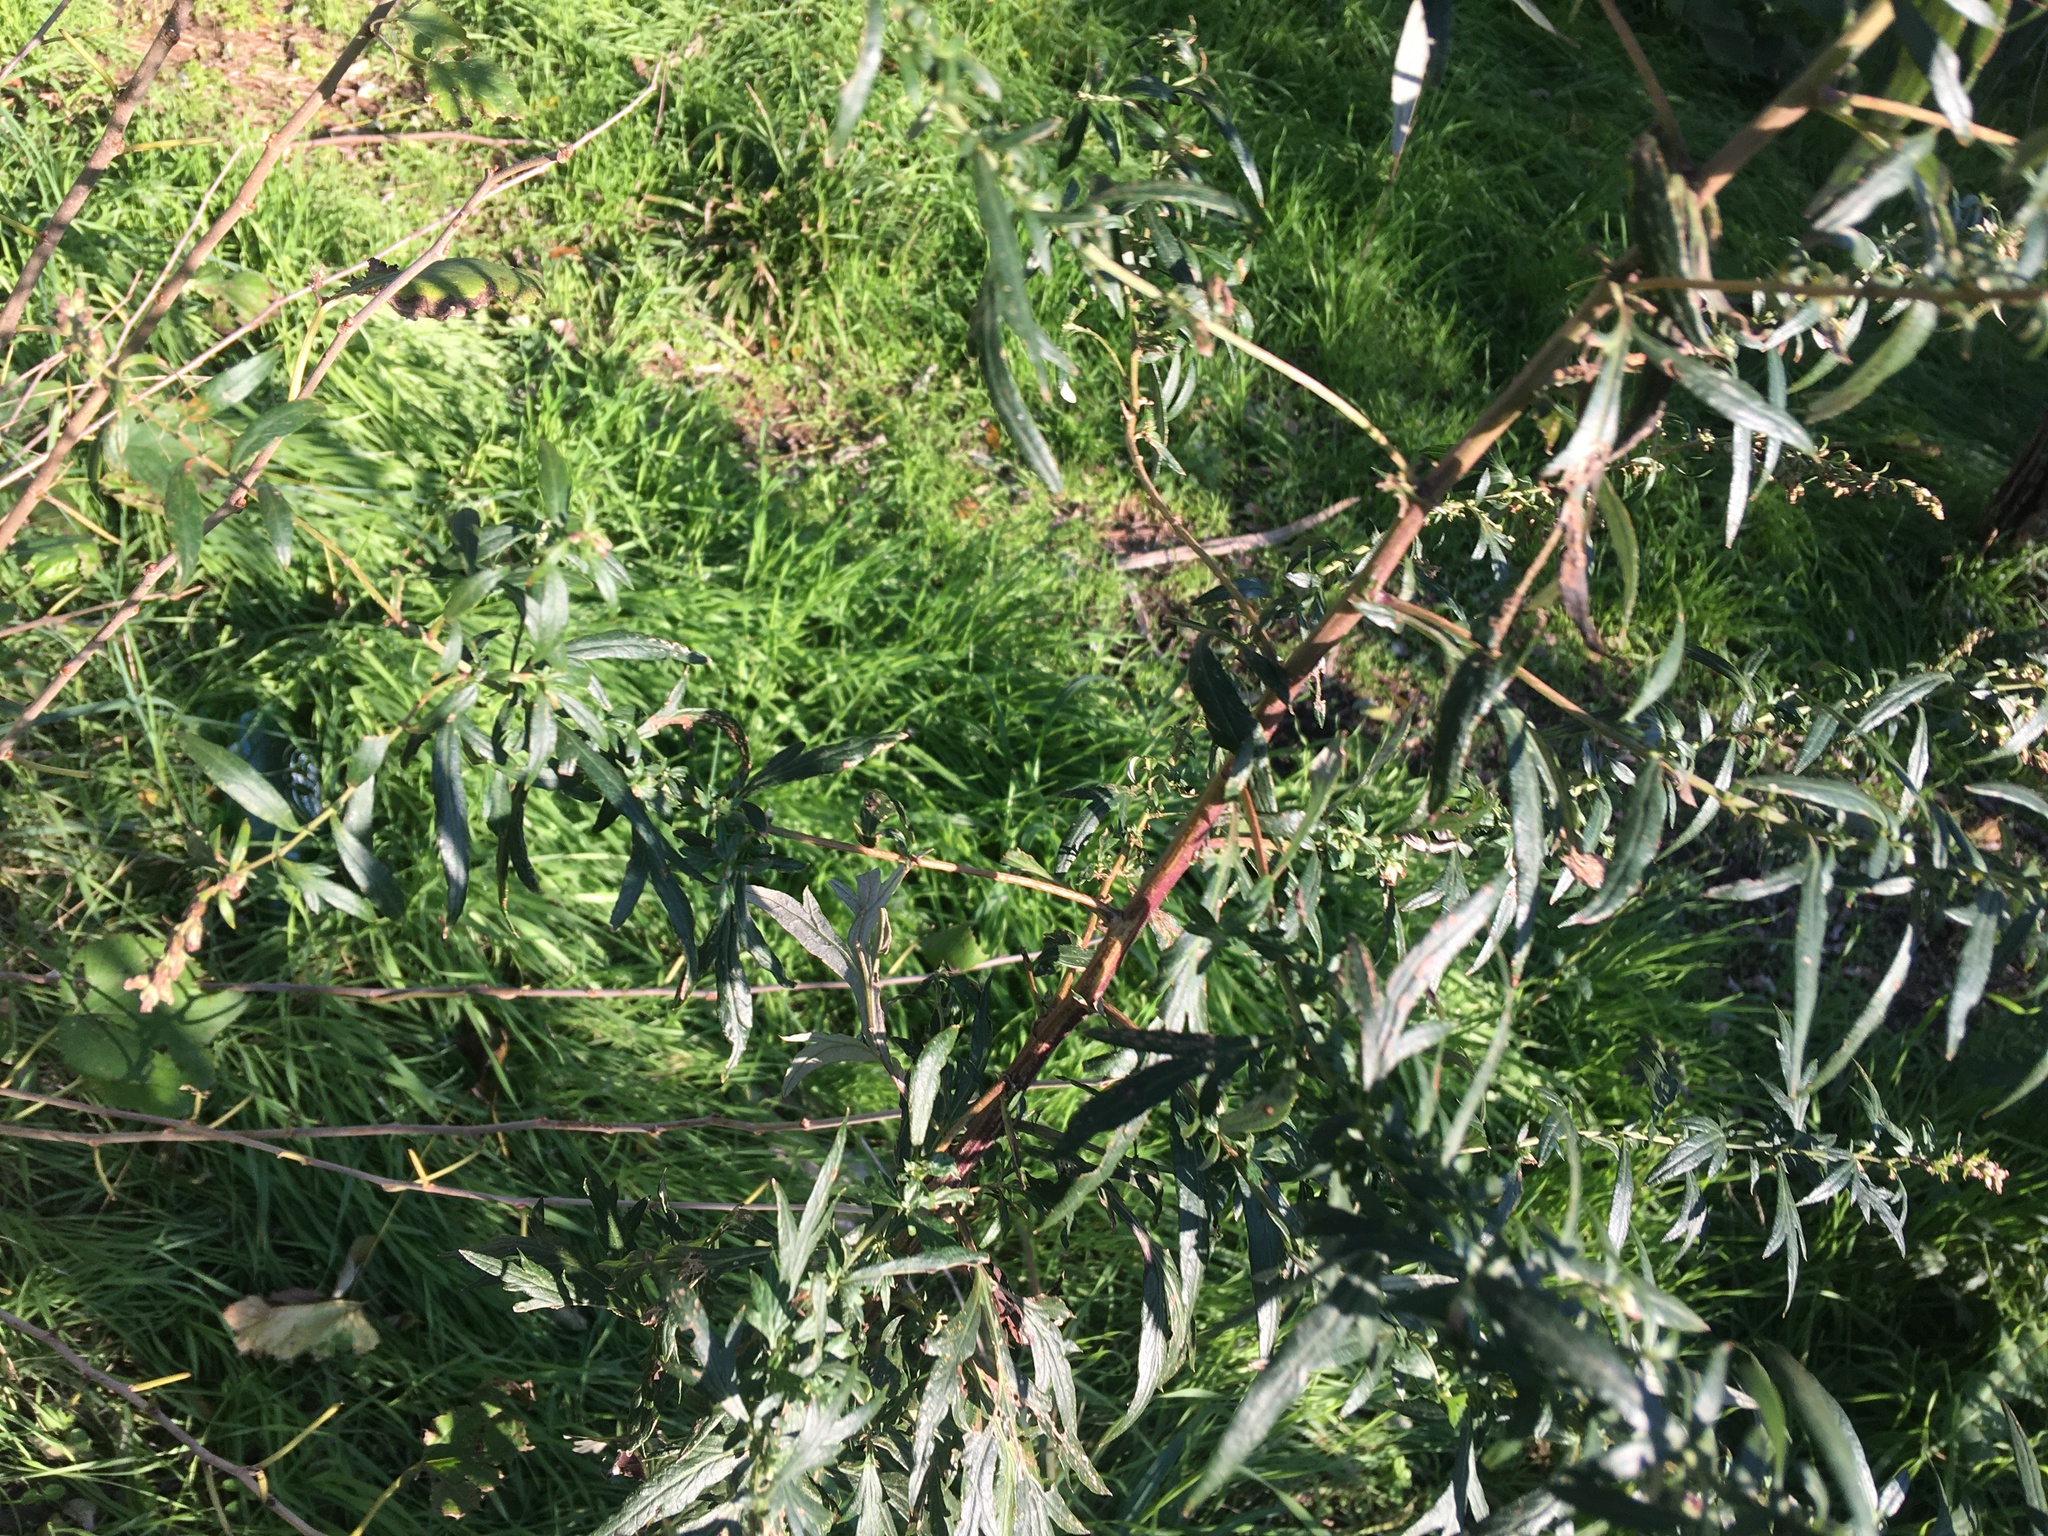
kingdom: Plantae
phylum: Tracheophyta
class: Magnoliopsida
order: Asterales
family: Asteraceae
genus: Artemisia
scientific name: Artemisia vulgaris
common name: Mugwort
